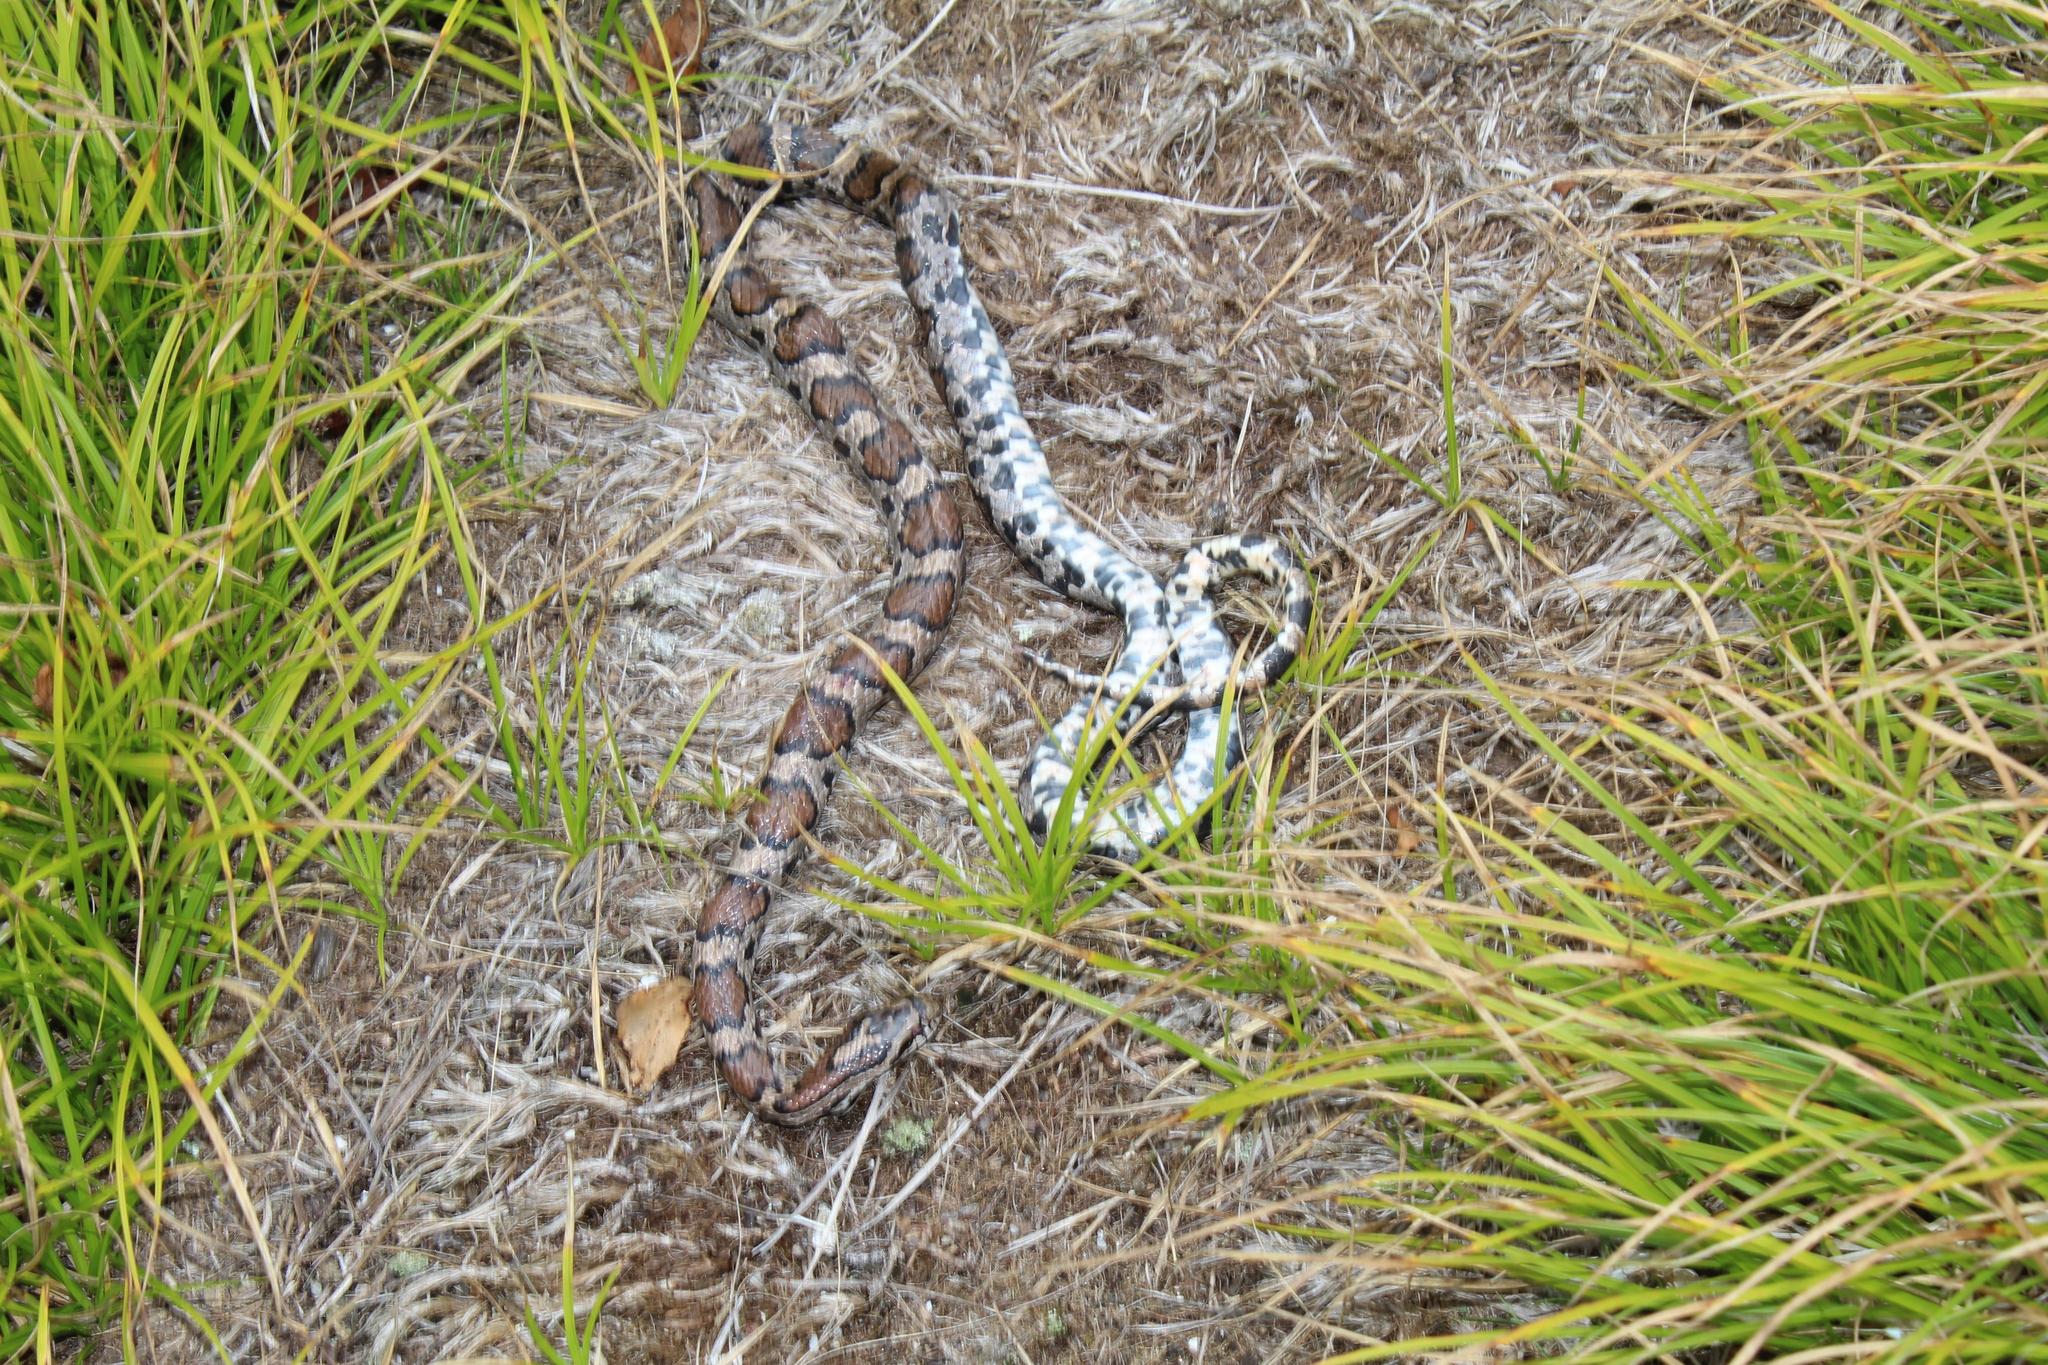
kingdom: Animalia
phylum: Chordata
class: Squamata
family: Colubridae
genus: Lampropeltis
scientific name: Lampropeltis triangulum
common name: Eastern milksnake
